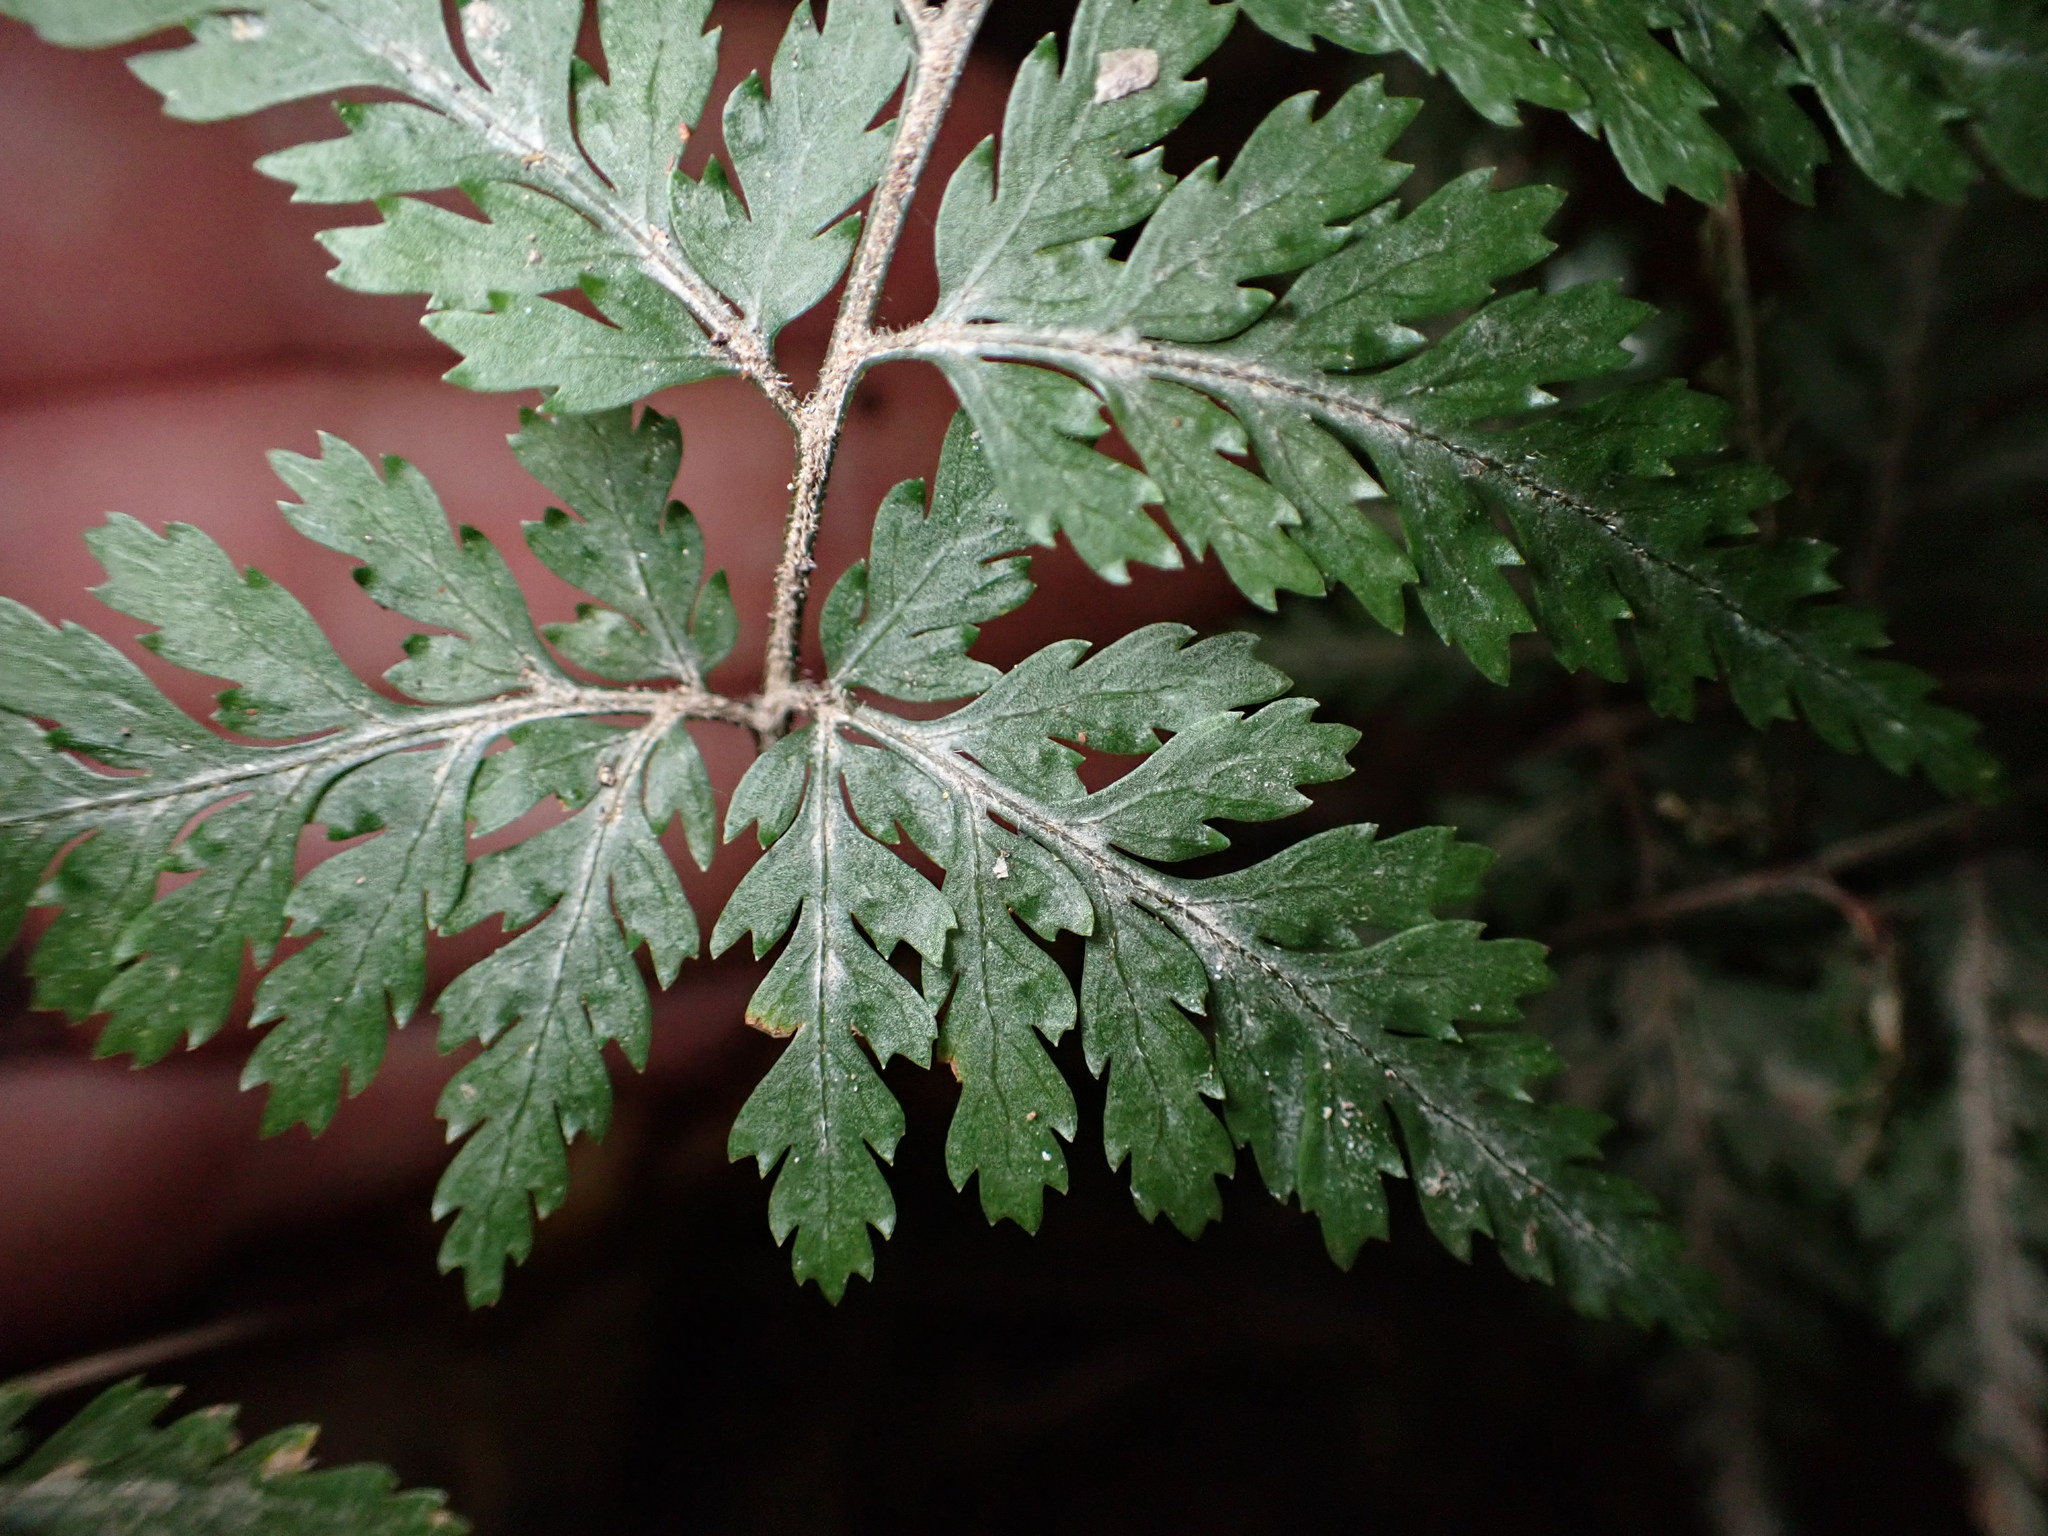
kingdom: Plantae
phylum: Tracheophyta
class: Polypodiopsida
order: Polypodiales
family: Dryopteridaceae
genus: Parapolystichum
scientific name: Parapolystichum glabellum
